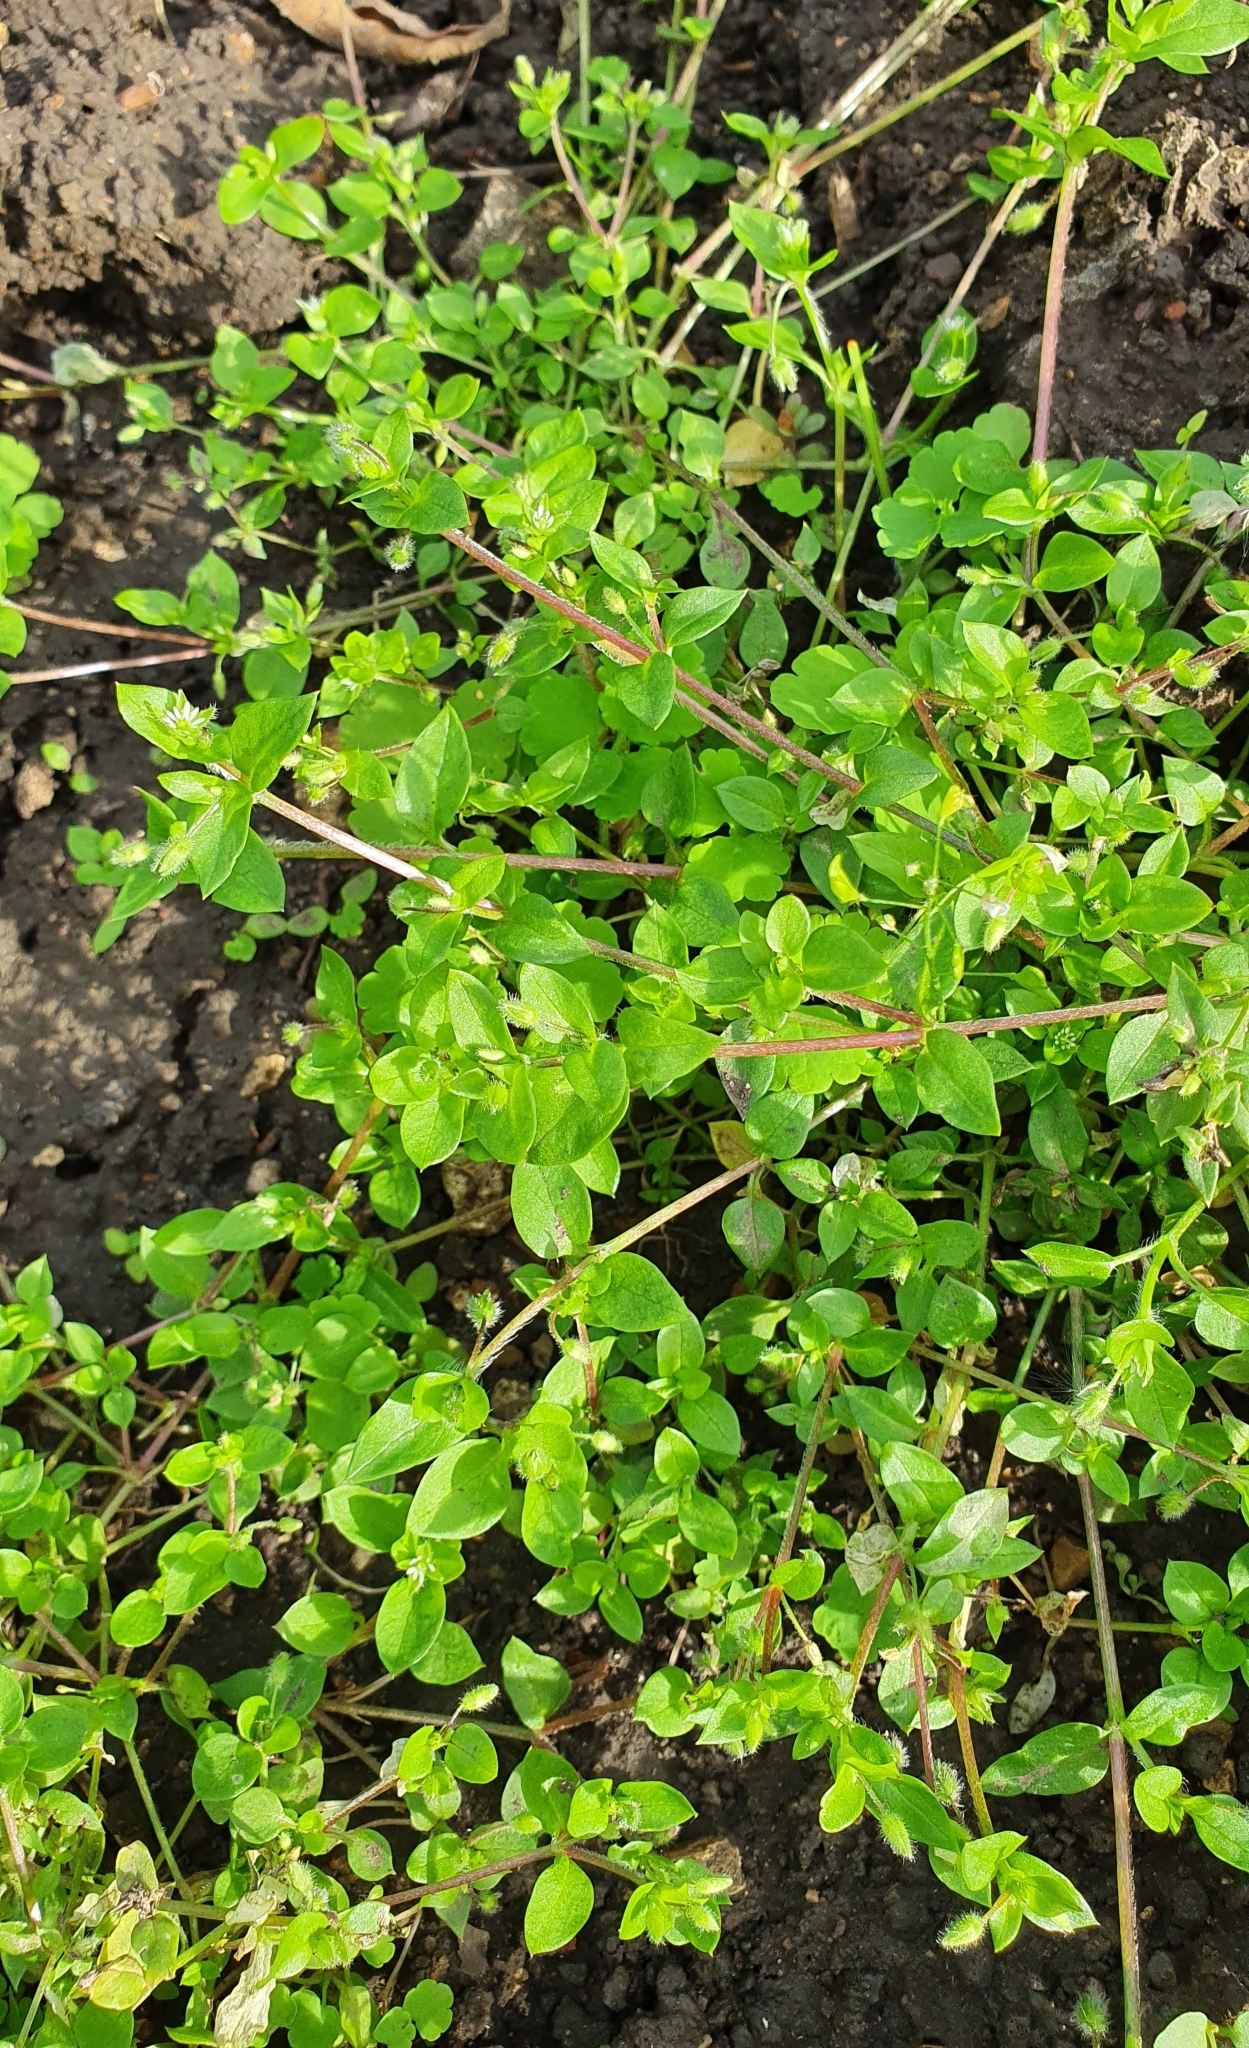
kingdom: Plantae
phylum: Tracheophyta
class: Magnoliopsida
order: Caryophyllales
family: Caryophyllaceae
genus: Stellaria
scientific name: Stellaria media
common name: Common chickweed
